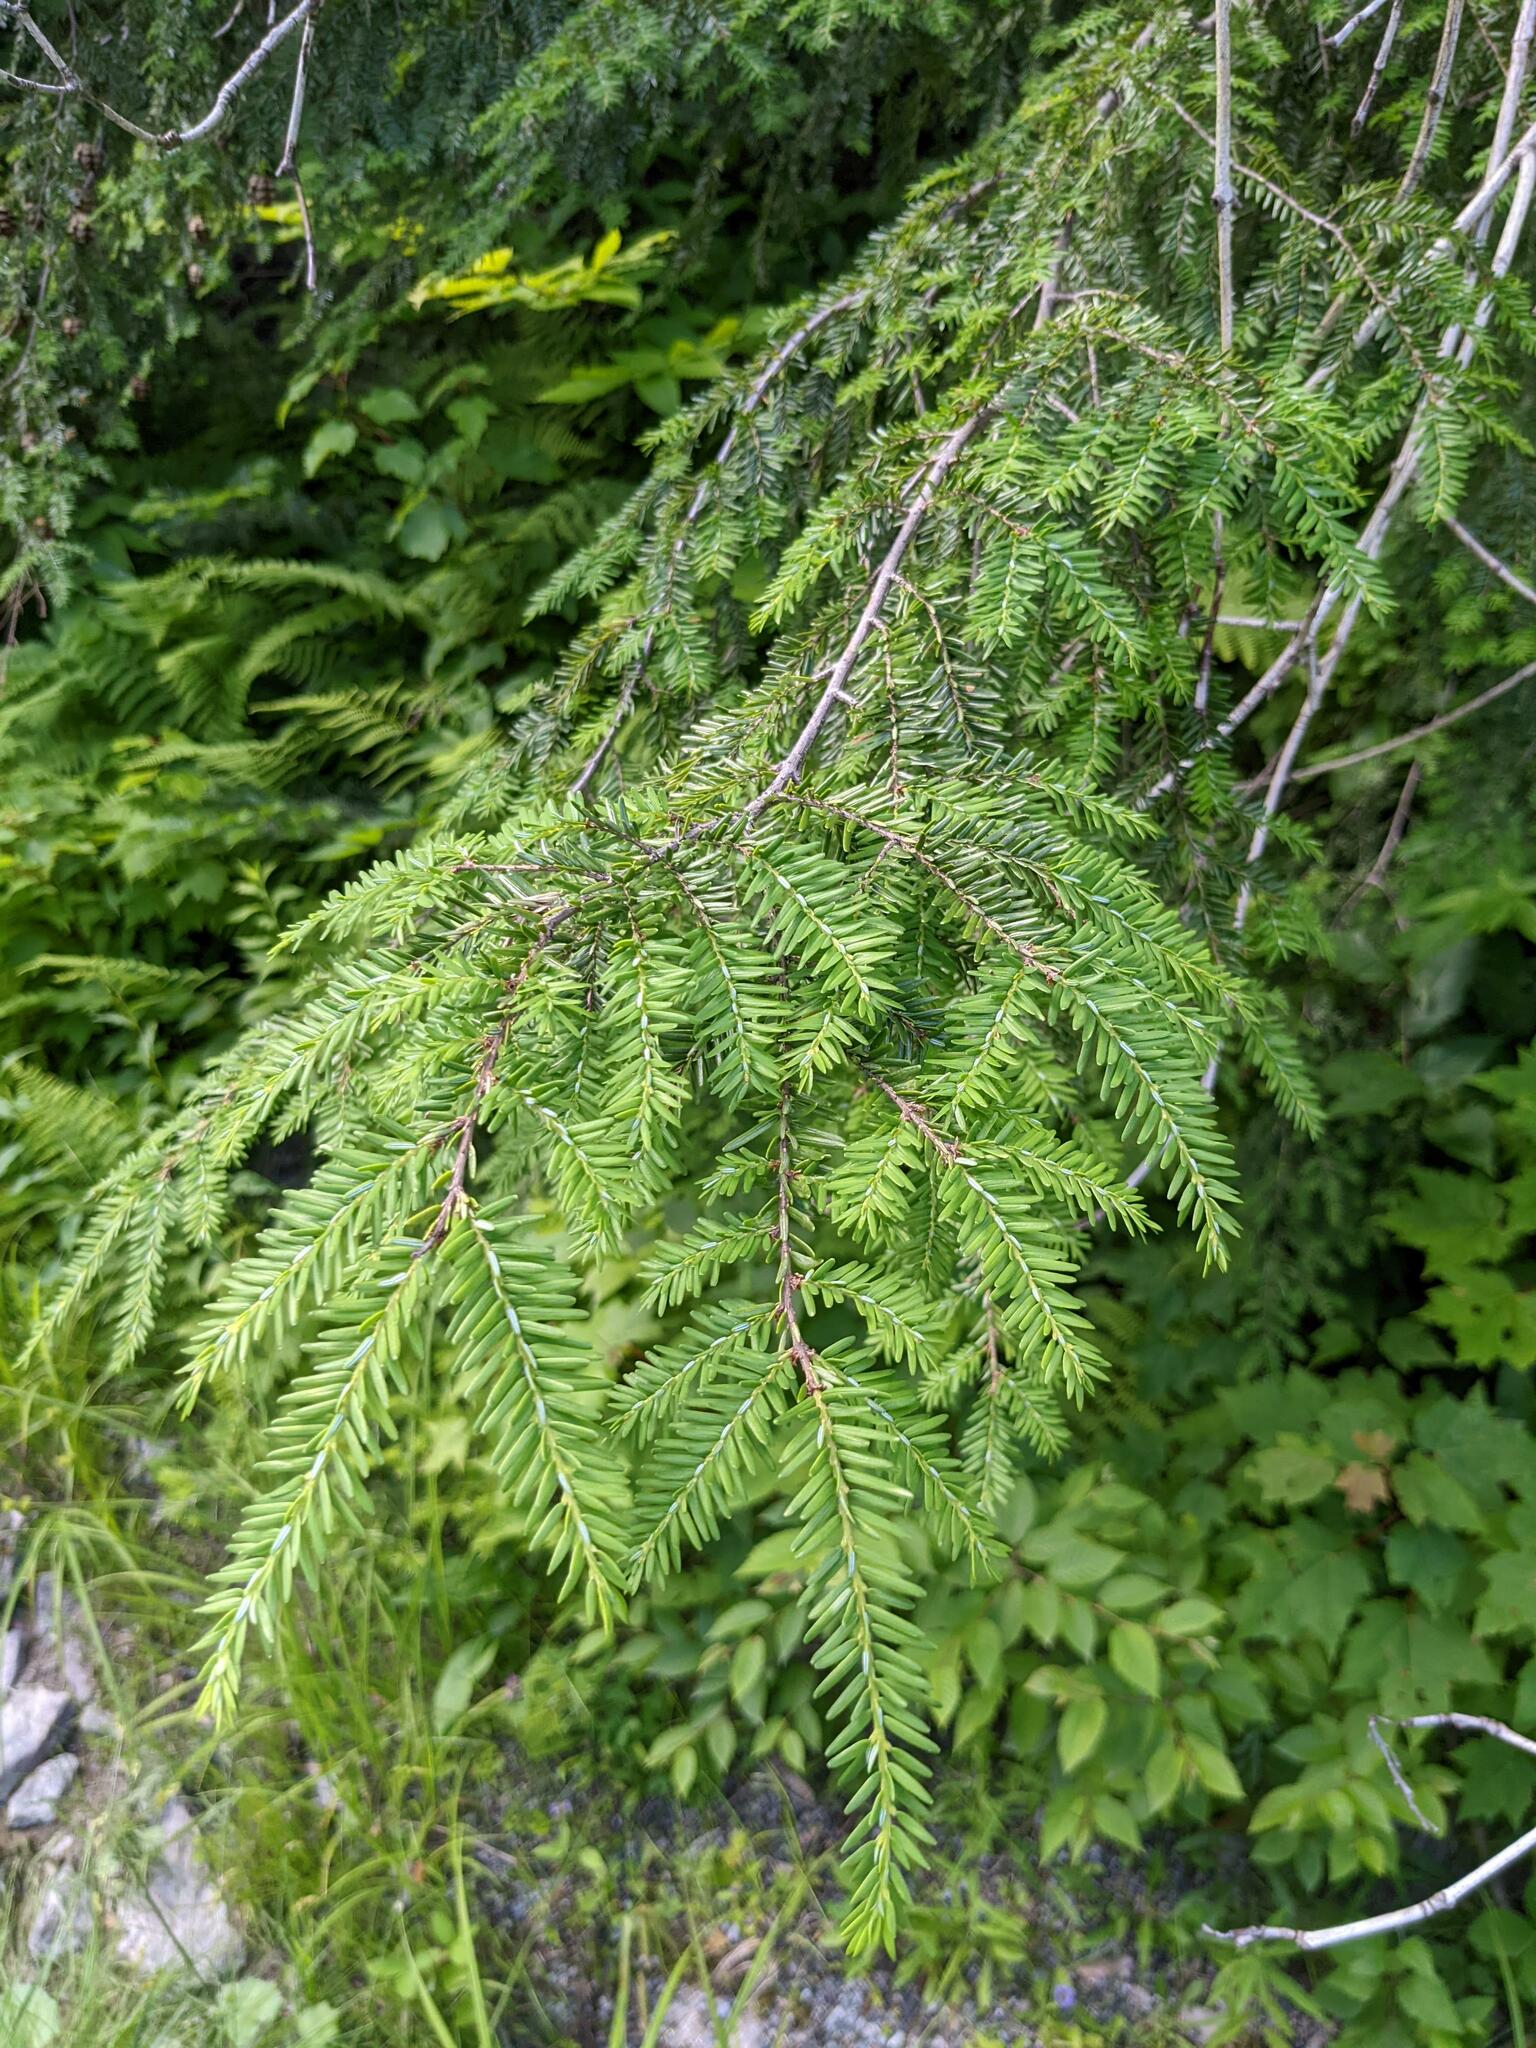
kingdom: Plantae
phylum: Tracheophyta
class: Pinopsida
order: Pinales
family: Pinaceae
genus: Tsuga
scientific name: Tsuga canadensis
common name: Eastern hemlock
